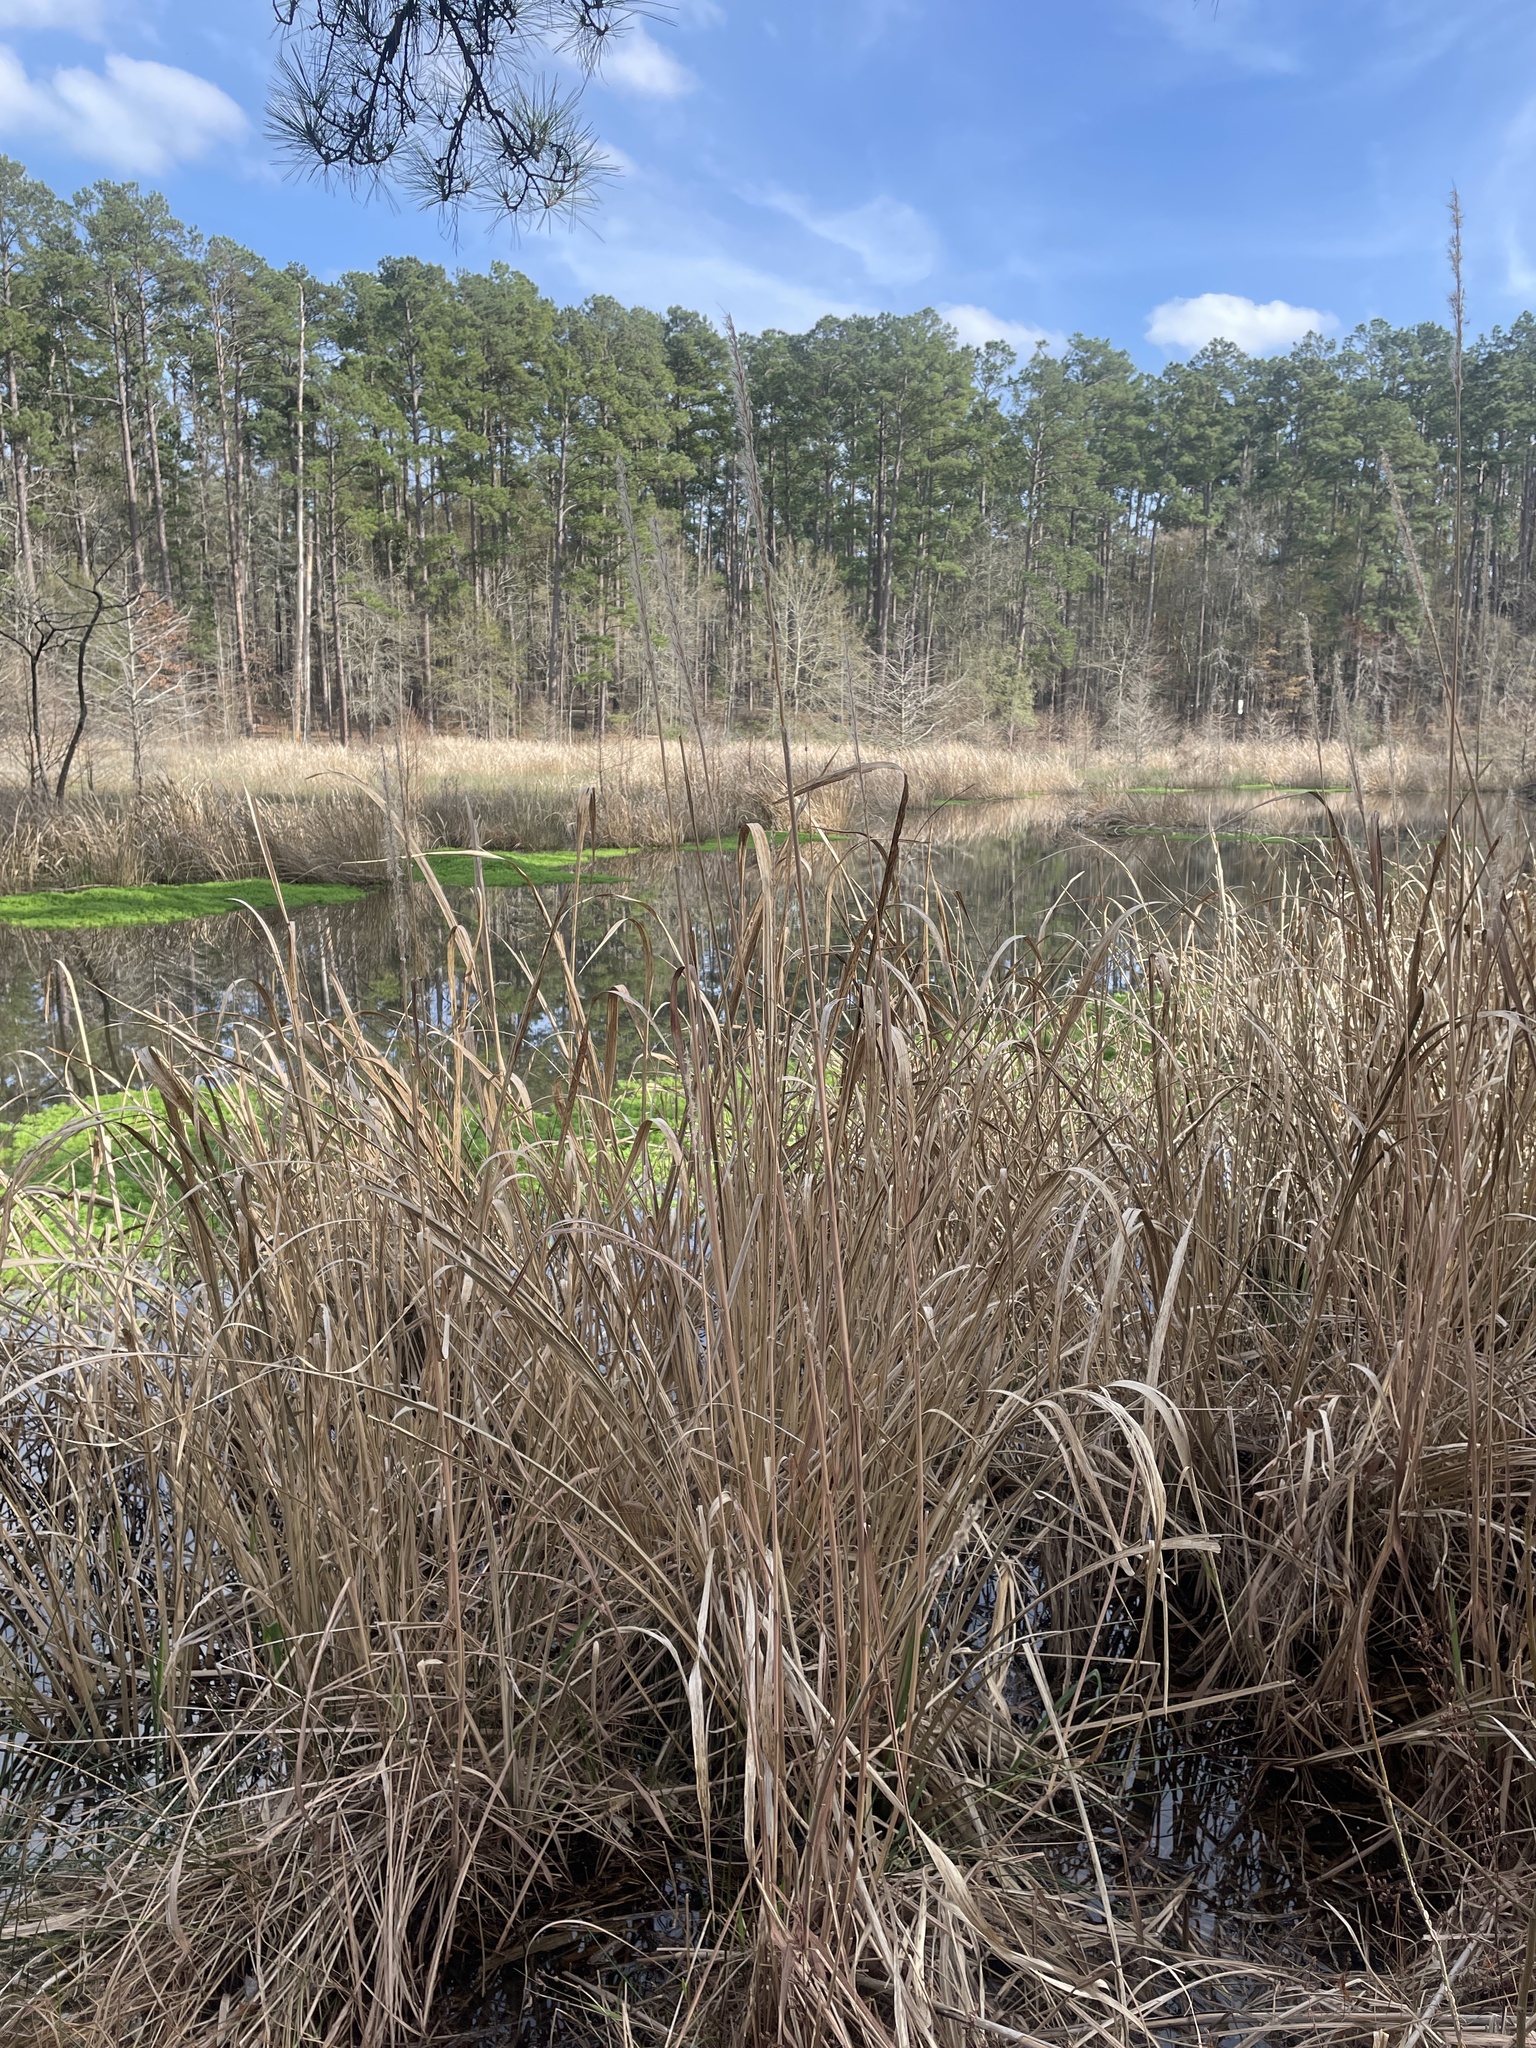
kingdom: Plantae
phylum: Tracheophyta
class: Liliopsida
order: Poales
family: Poaceae
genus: Erianthus
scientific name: Erianthus giganteus
